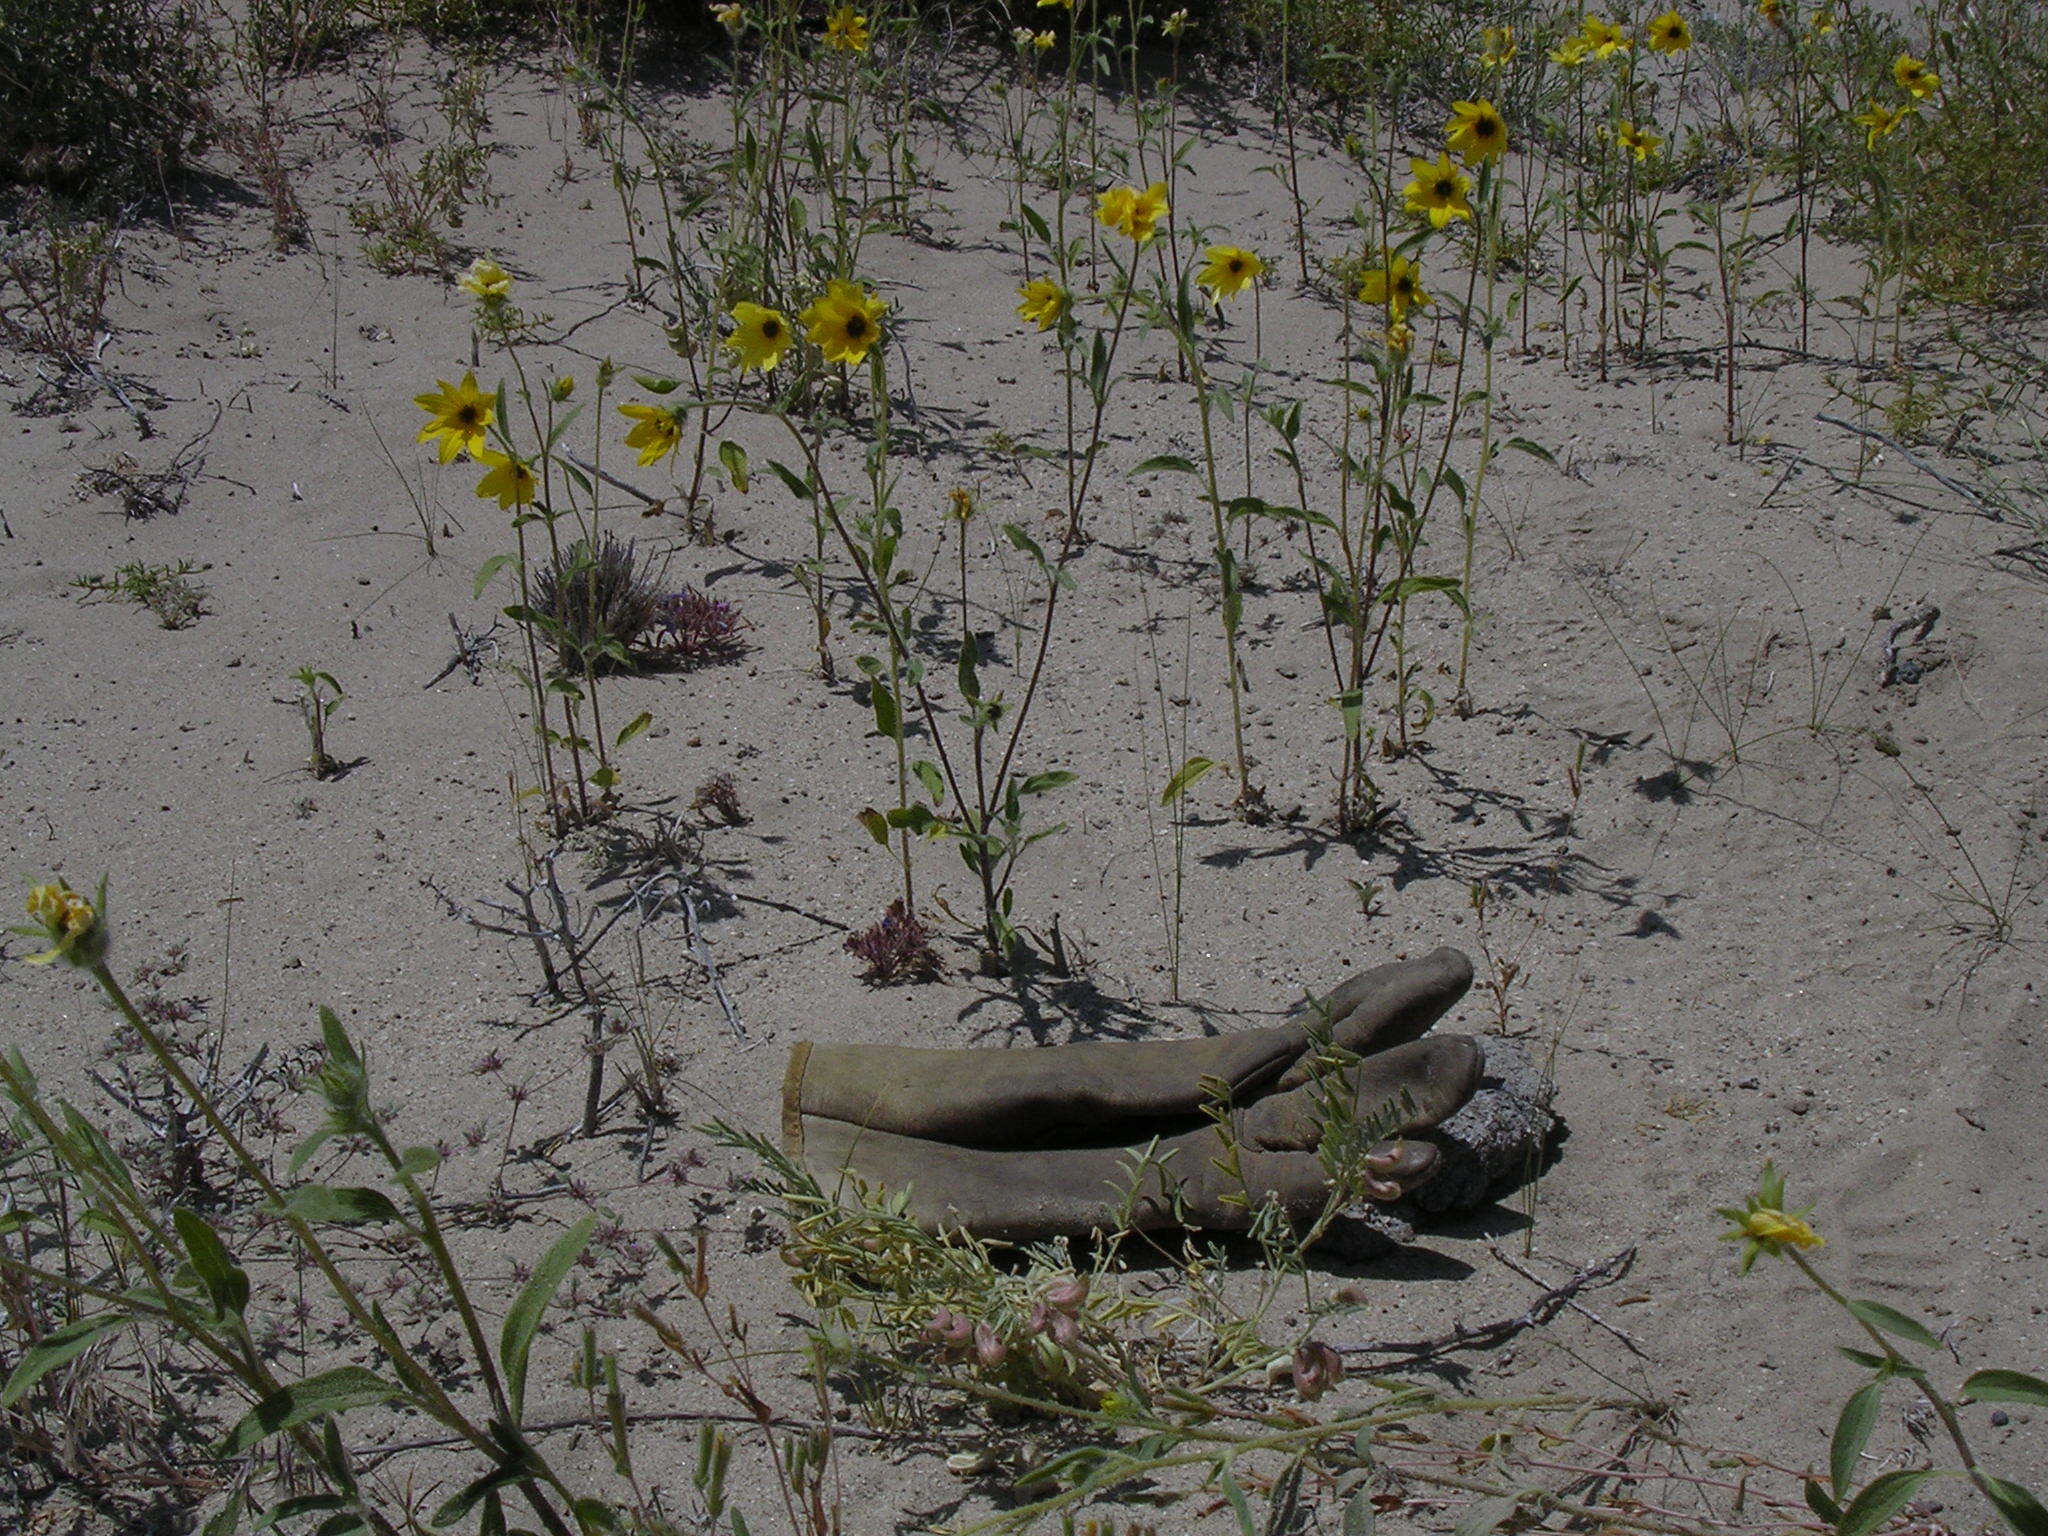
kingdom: Plantae
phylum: Tracheophyta
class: Magnoliopsida
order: Asterales
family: Asteraceae
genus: Helianthus
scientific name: Helianthus deserticola
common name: Desert sunflower
